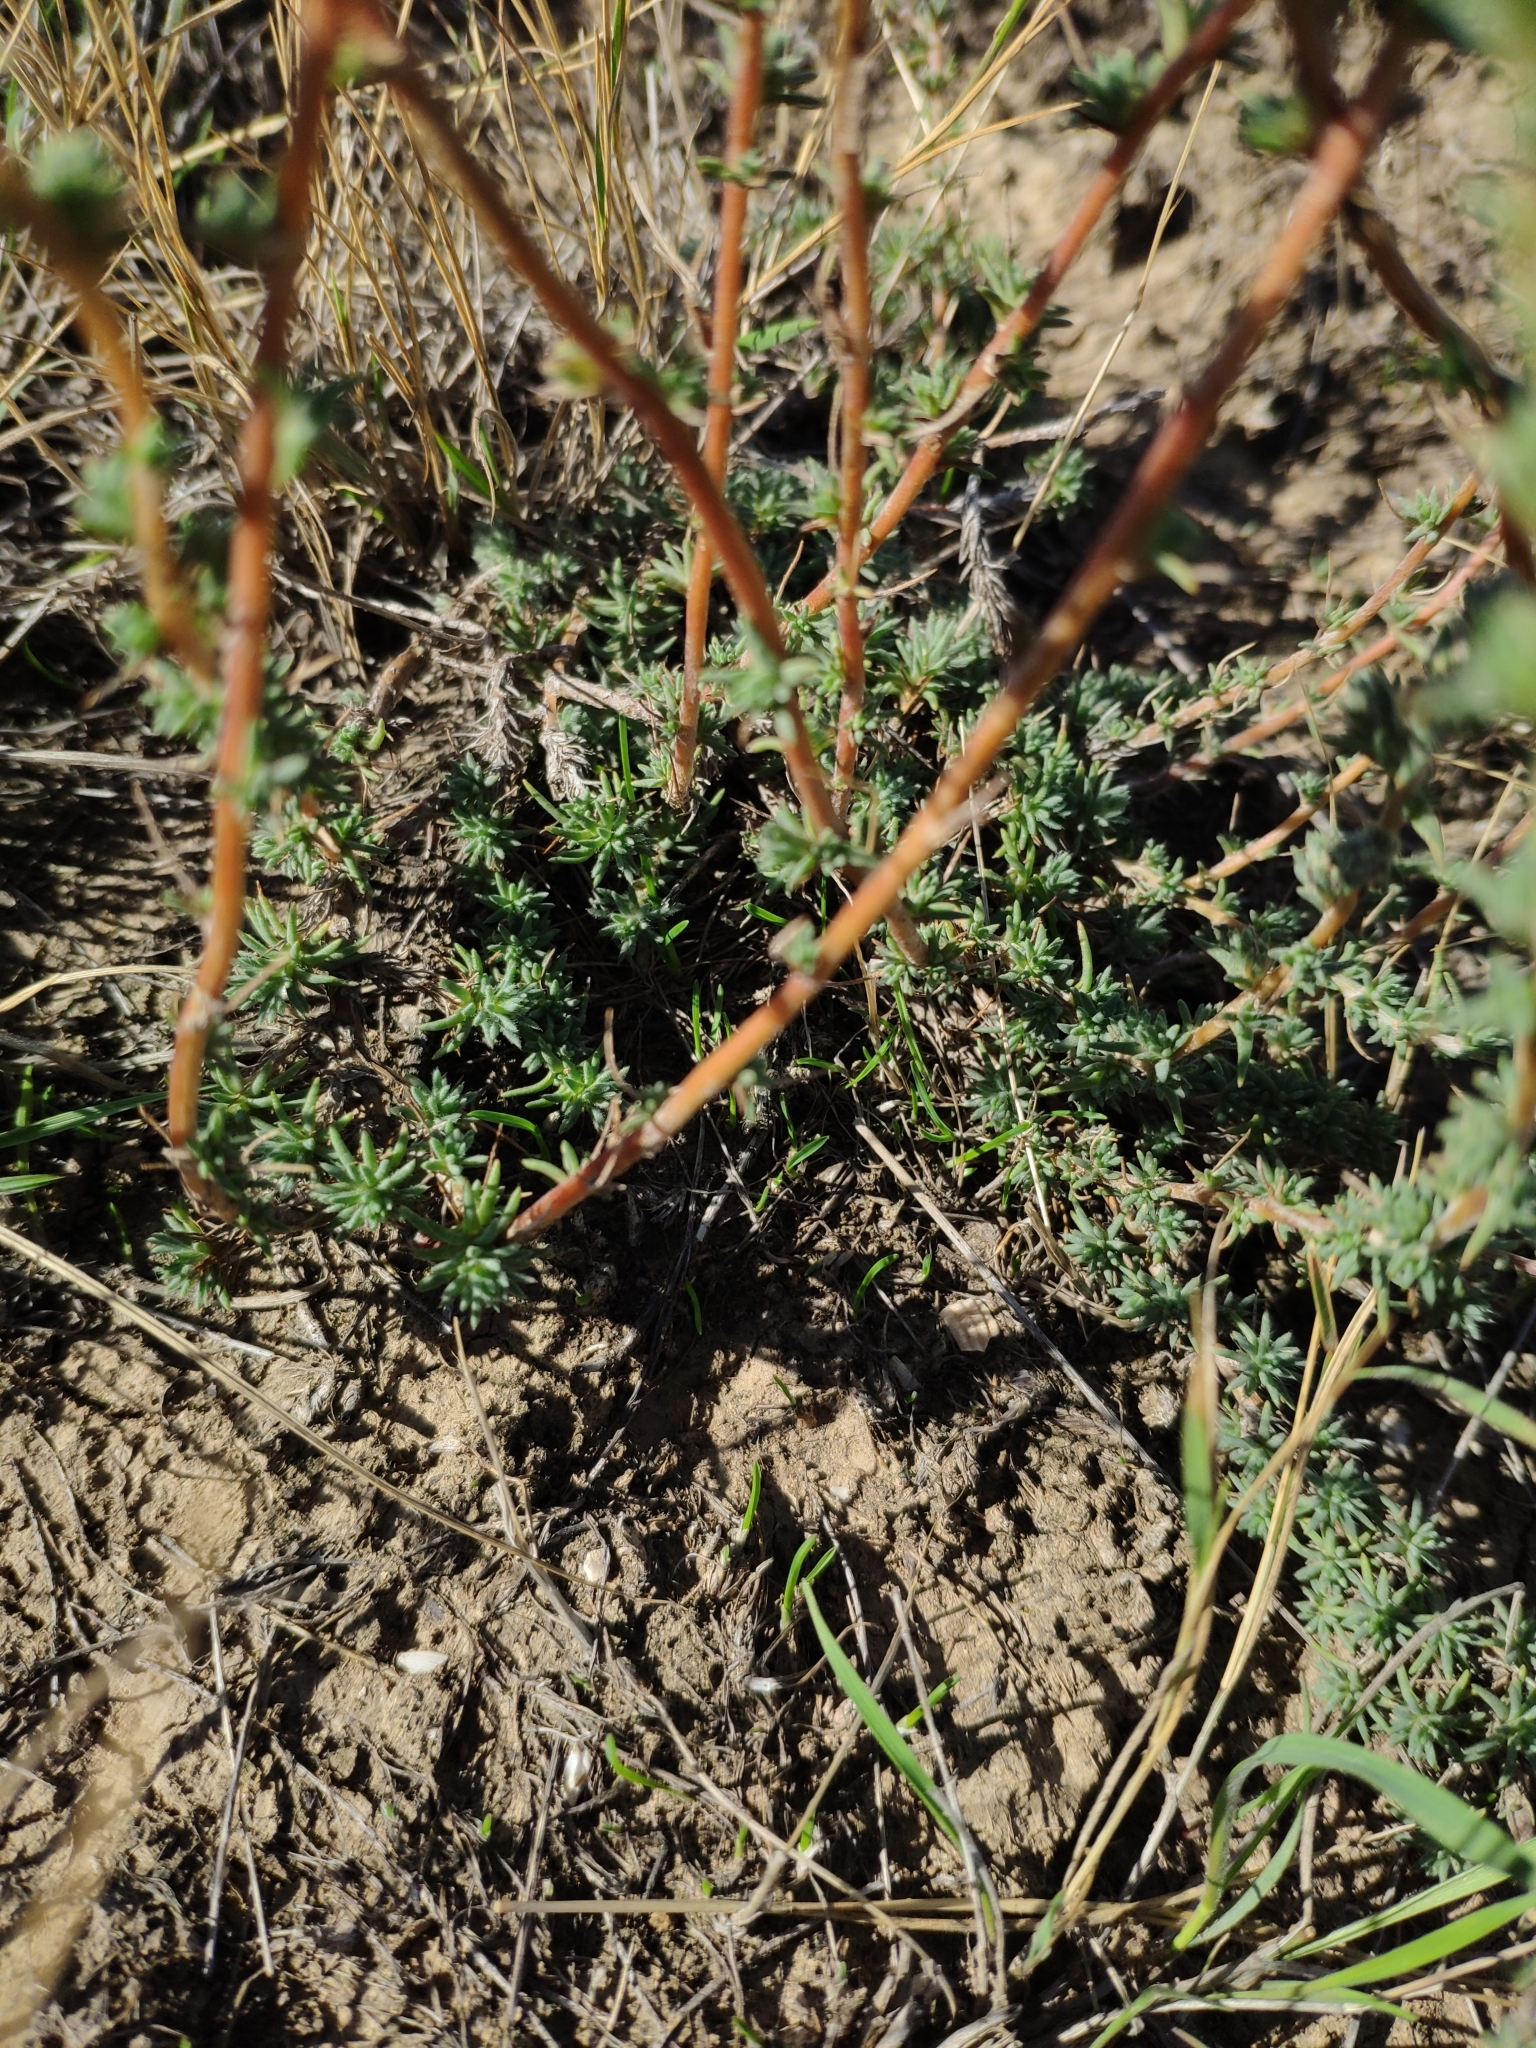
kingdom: Plantae
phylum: Tracheophyta
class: Magnoliopsida
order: Caryophyllales
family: Amaranthaceae
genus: Camphorosma
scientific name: Camphorosma monspeliaca
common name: Camphorfume
